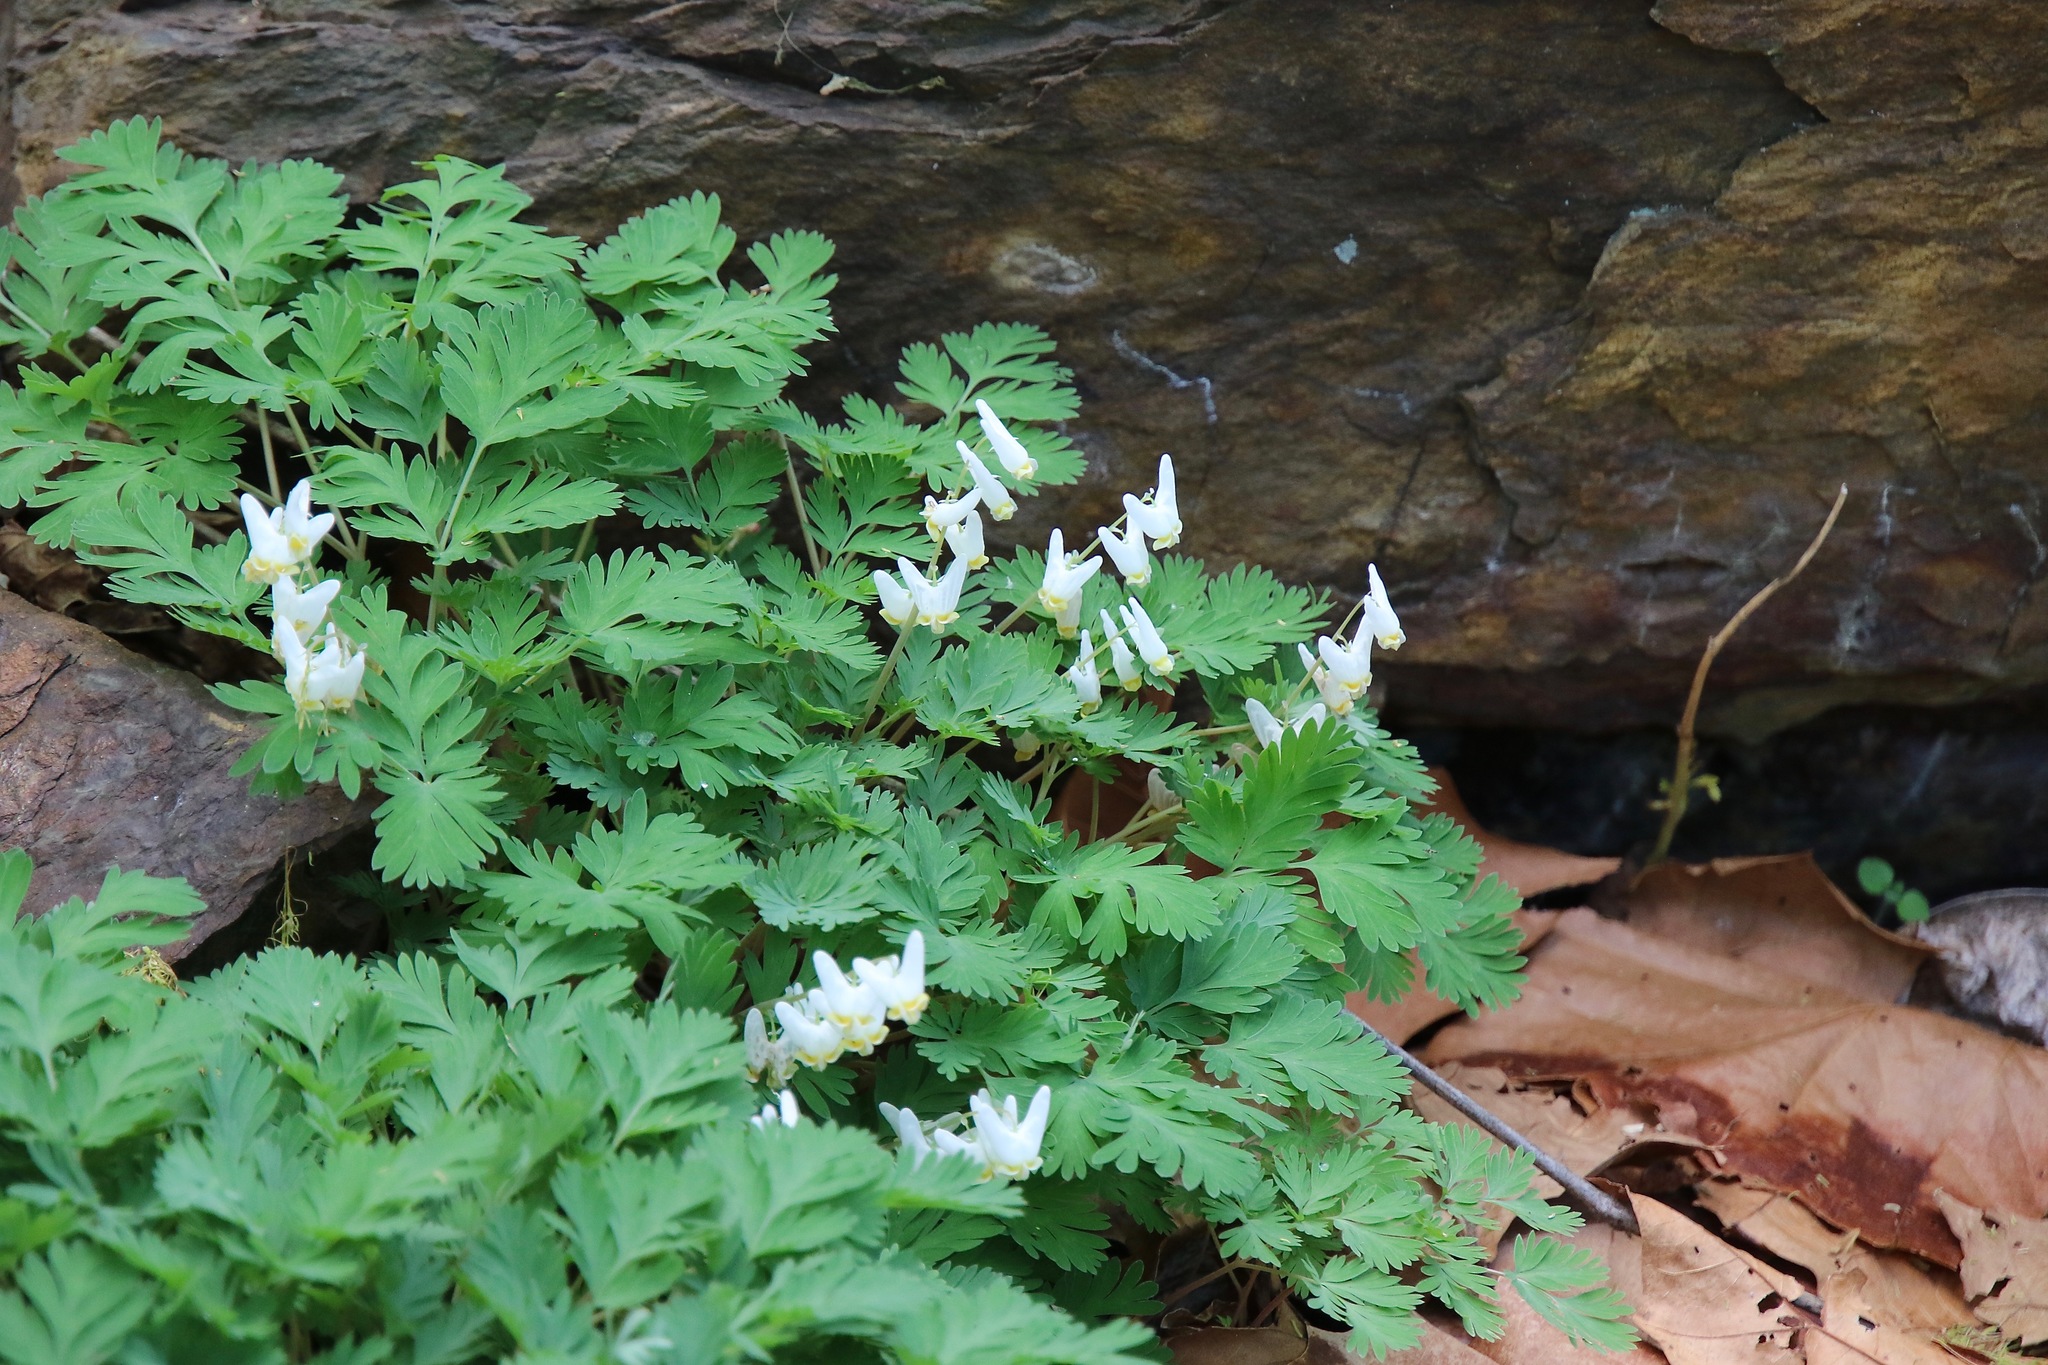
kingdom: Plantae
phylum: Tracheophyta
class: Magnoliopsida
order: Ranunculales
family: Papaveraceae
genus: Dicentra
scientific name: Dicentra cucullaria
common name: Dutchman's breeches
